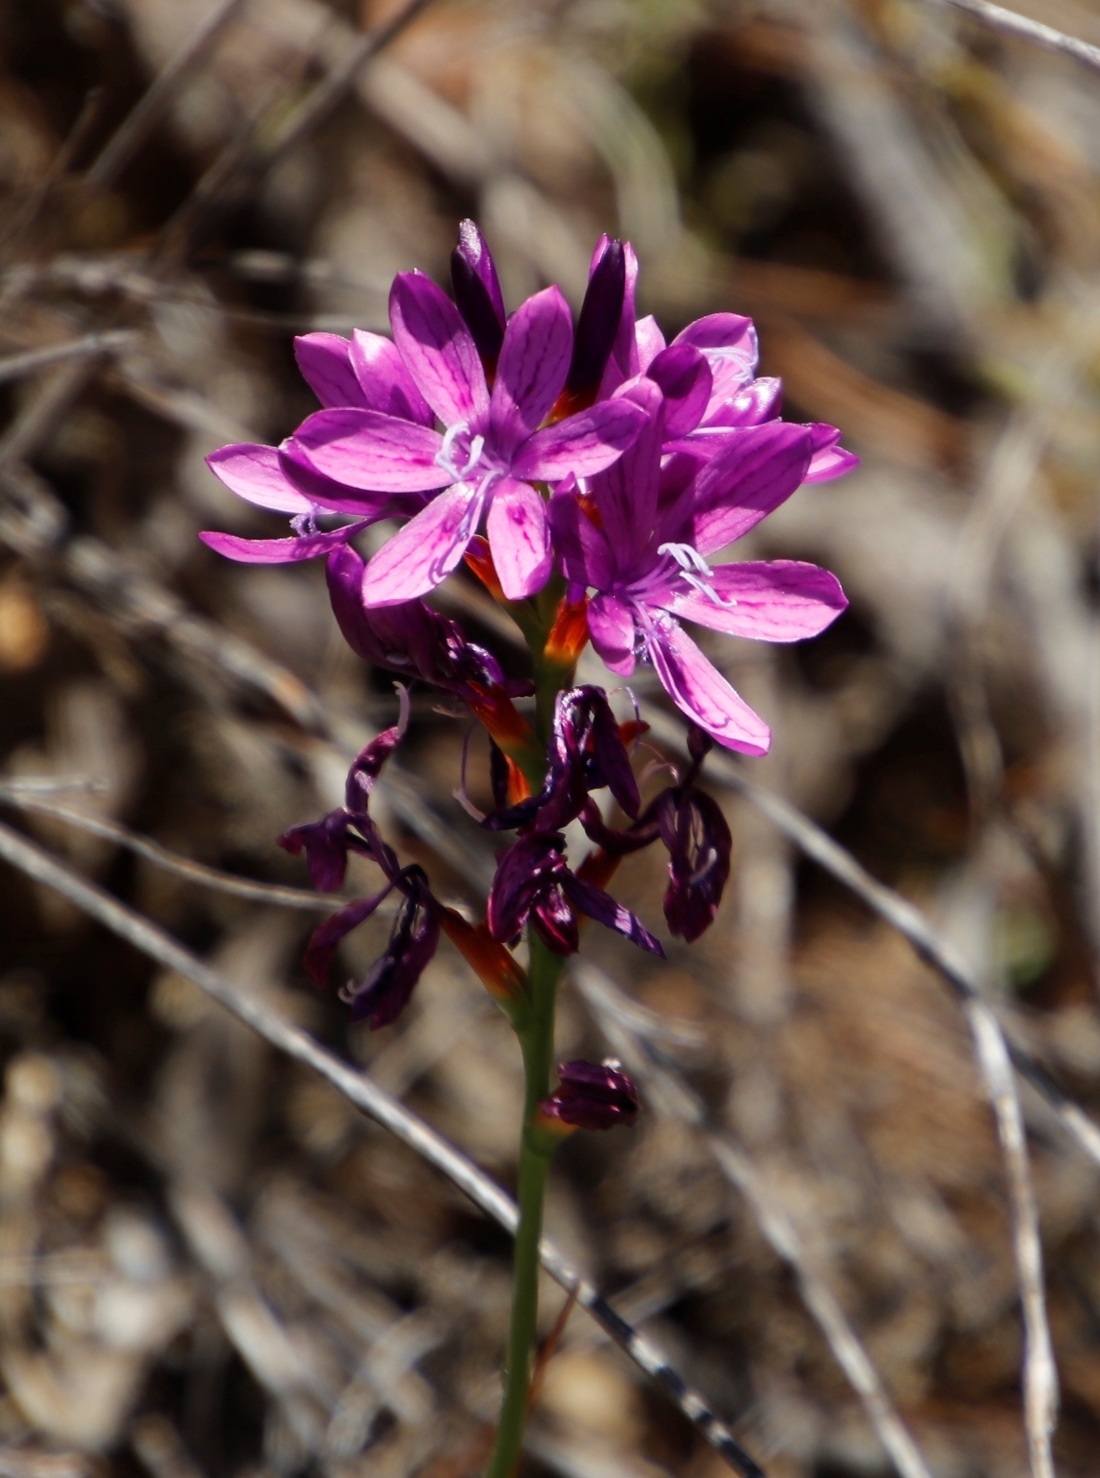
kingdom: Plantae
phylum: Tracheophyta
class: Liliopsida
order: Asparagales
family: Iridaceae
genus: Thereianthus
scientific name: Thereianthus bracteolatus
